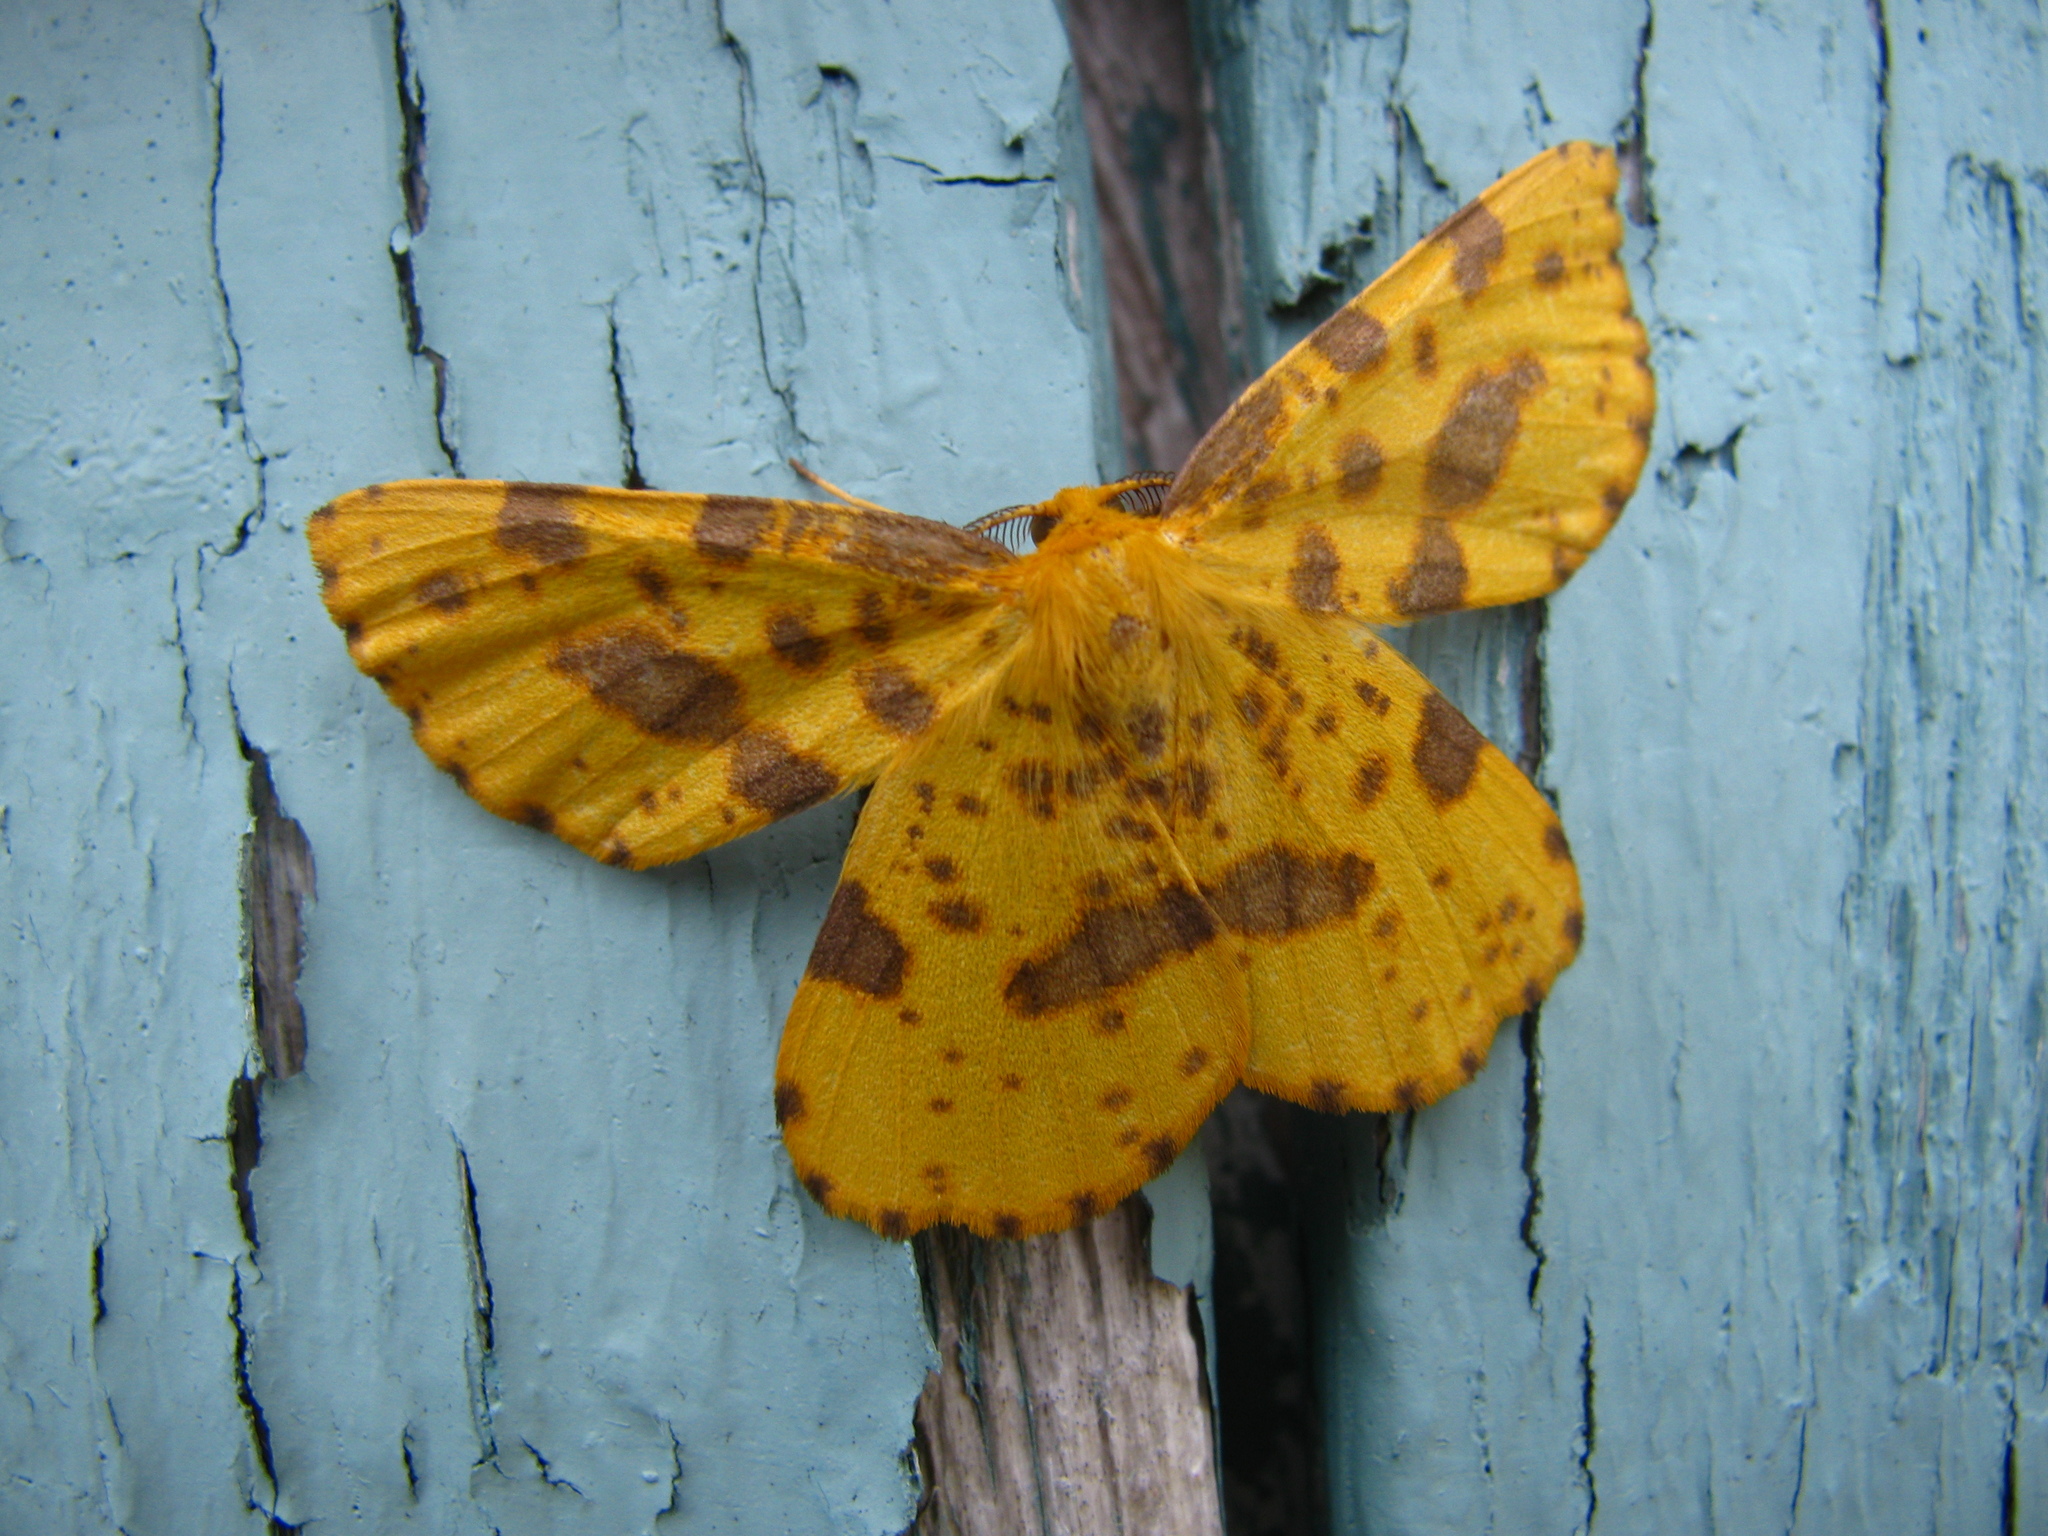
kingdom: Animalia
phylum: Arthropoda
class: Insecta
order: Lepidoptera
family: Geometridae
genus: Xanthotype
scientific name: Xanthotype
